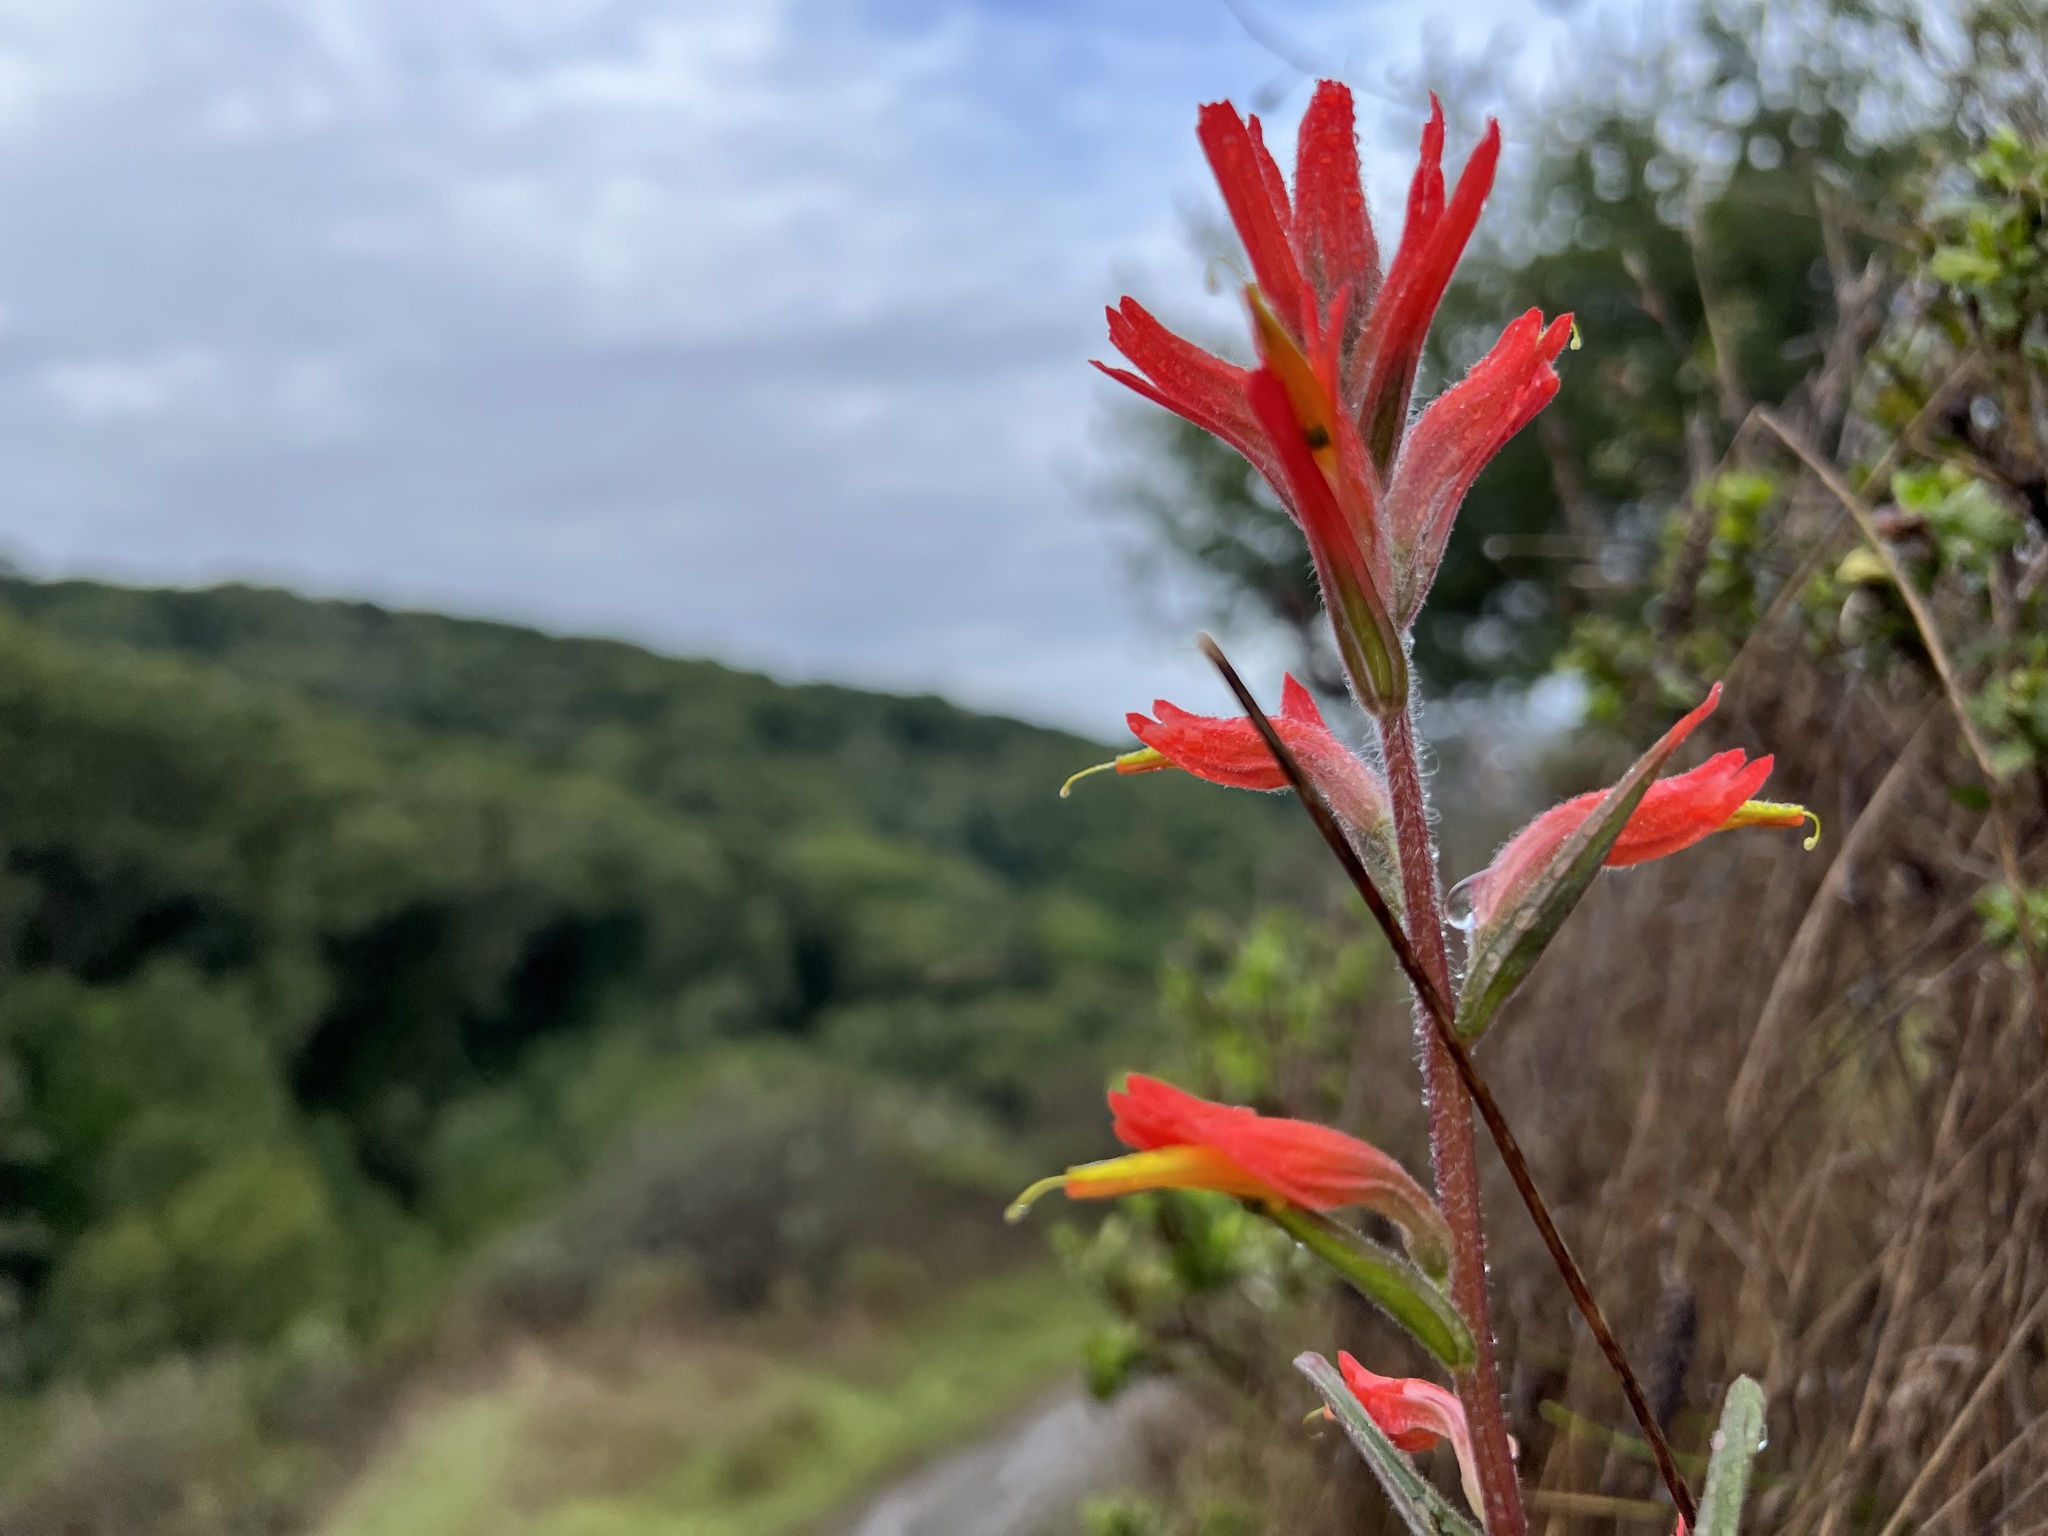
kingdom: Plantae
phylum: Tracheophyta
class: Magnoliopsida
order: Lamiales
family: Orobanchaceae
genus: Castilleja
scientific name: Castilleja subinclusa
